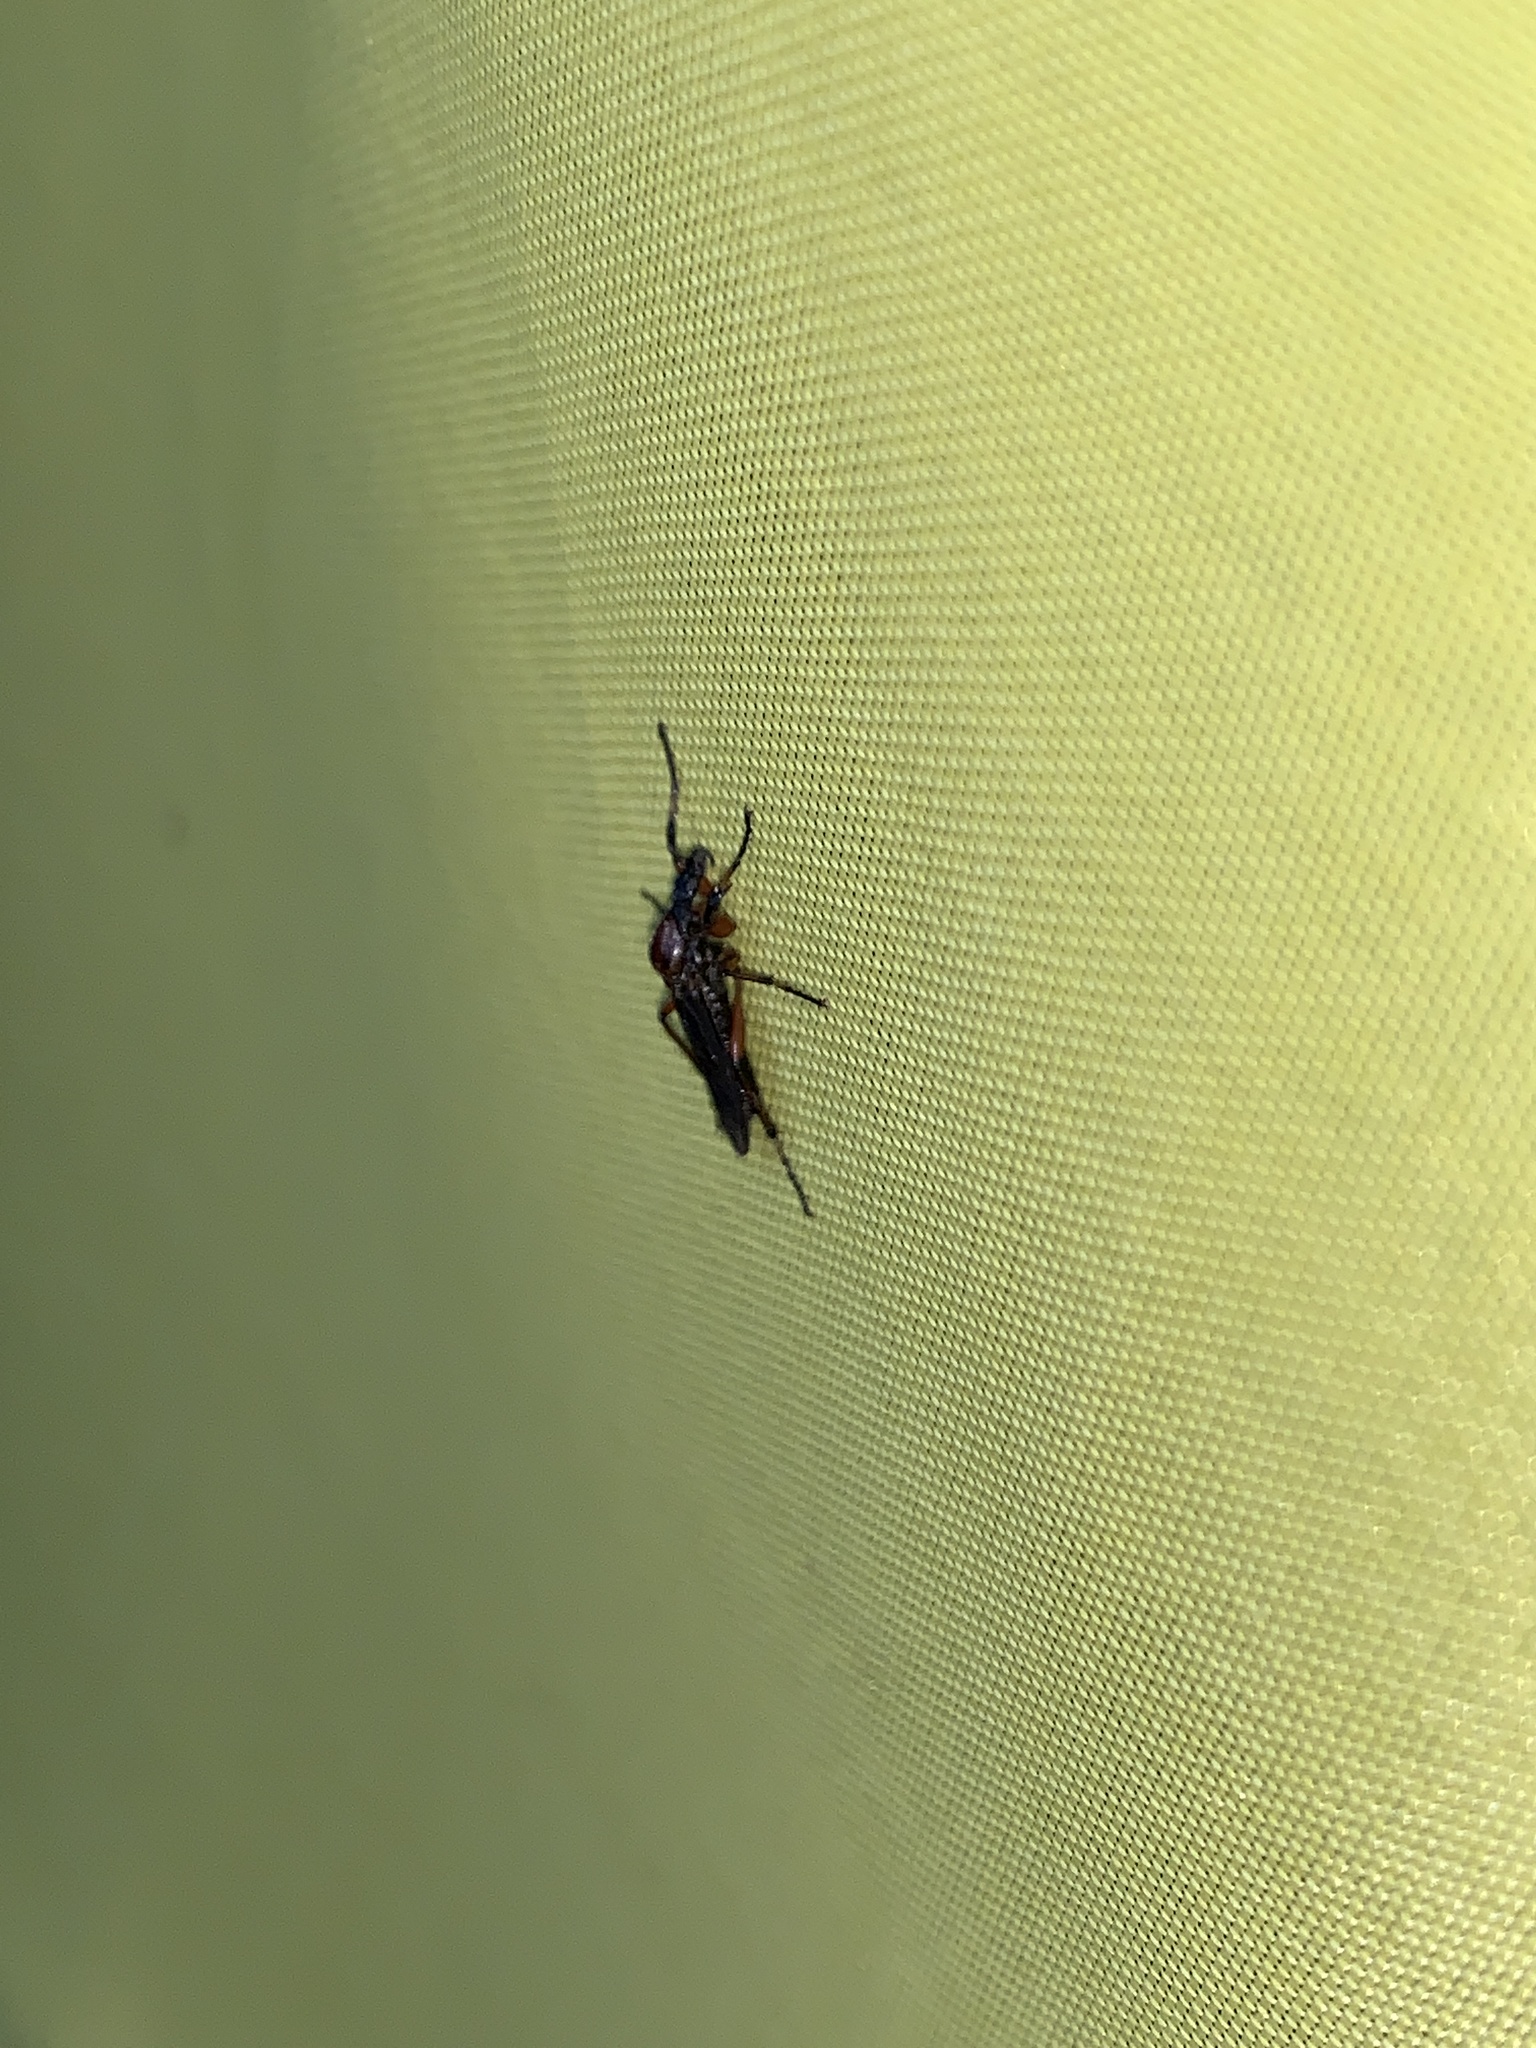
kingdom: Animalia
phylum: Arthropoda
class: Insecta
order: Diptera
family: Bibionidae
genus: Bibio
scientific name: Bibio
